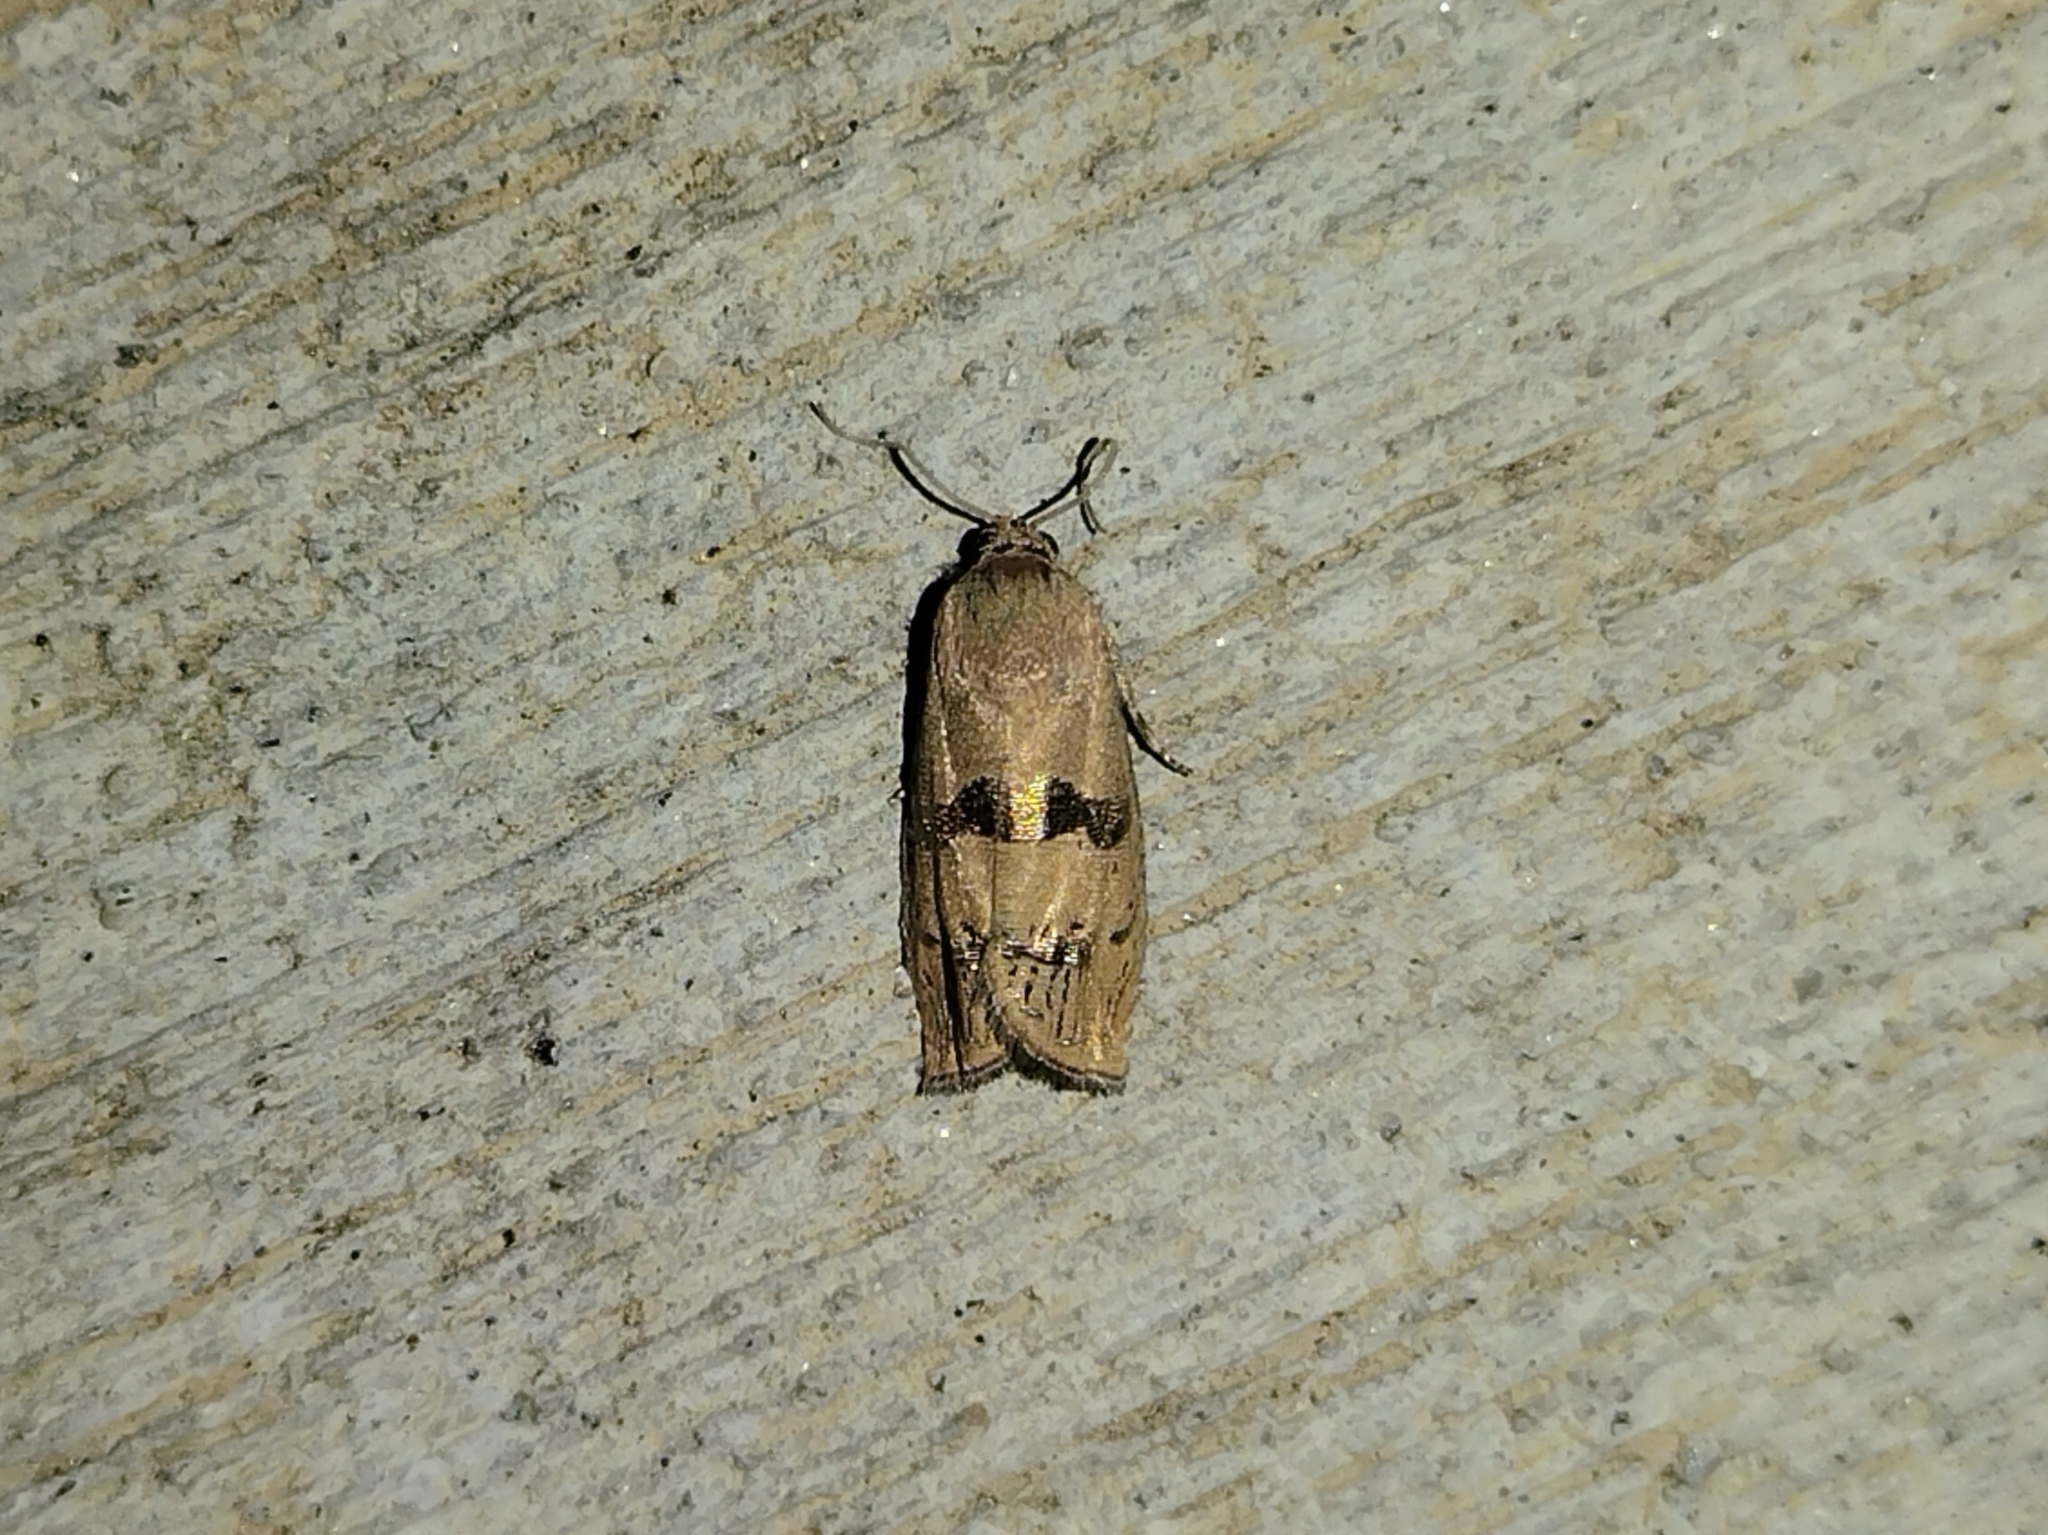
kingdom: Animalia
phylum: Arthropoda
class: Insecta
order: Lepidoptera
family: Tortricidae
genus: Cydia
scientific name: Cydia latiferreana
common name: Filbertworm moth
